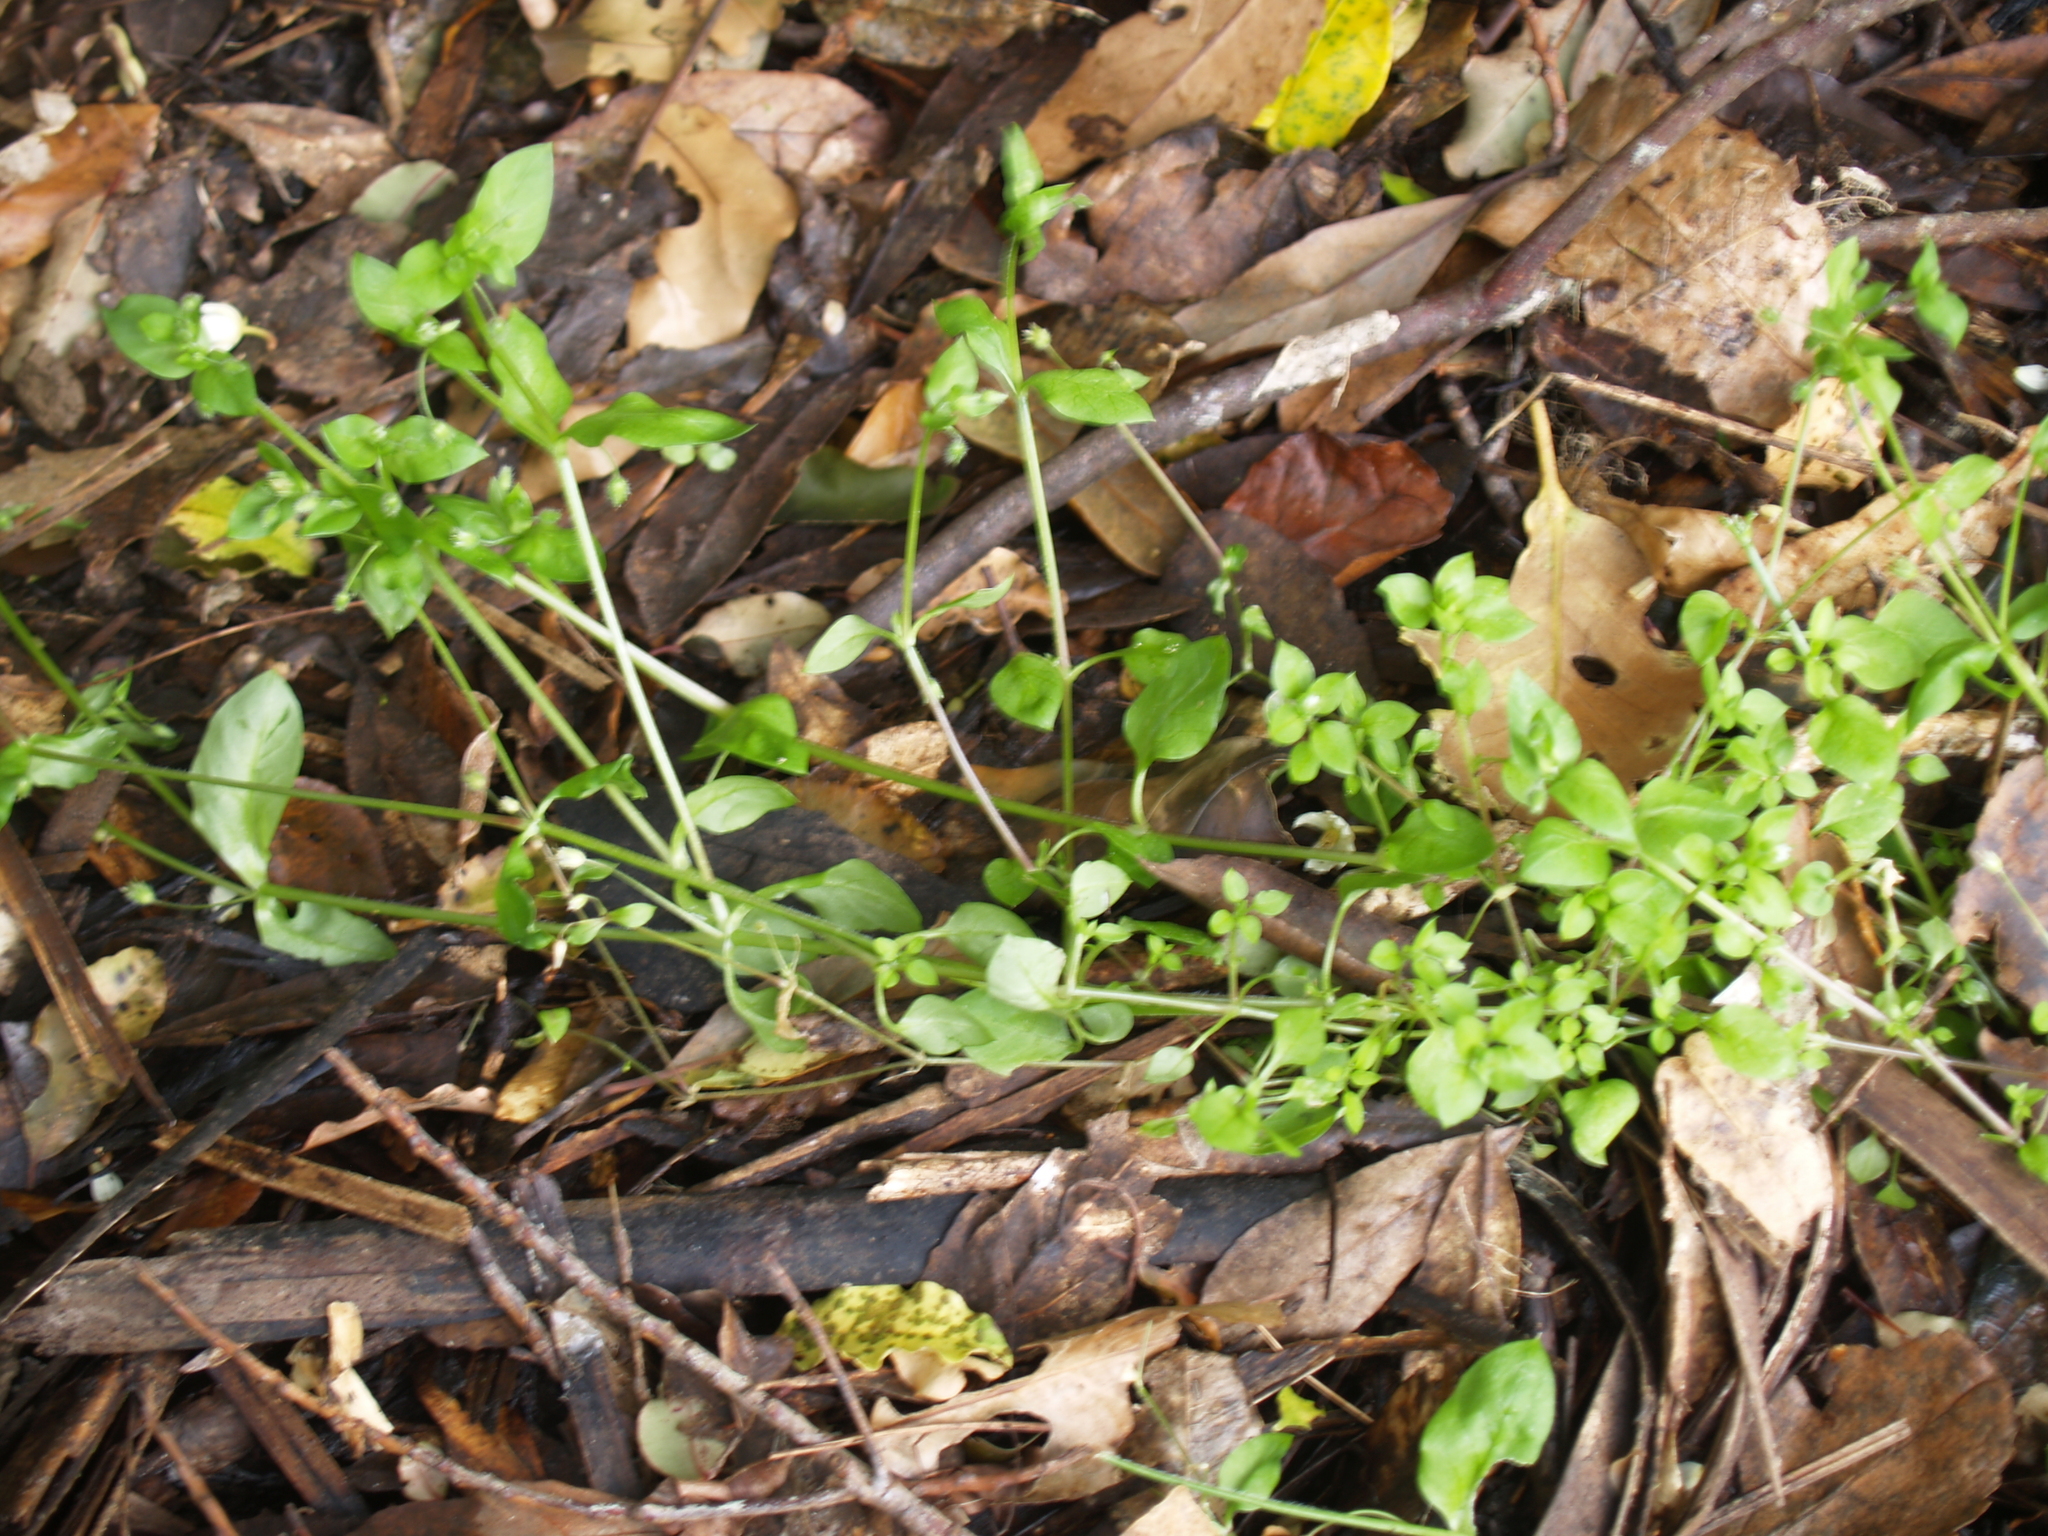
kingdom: Plantae
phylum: Tracheophyta
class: Magnoliopsida
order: Caryophyllales
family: Caryophyllaceae
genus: Stellaria
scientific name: Stellaria media
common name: Common chickweed
